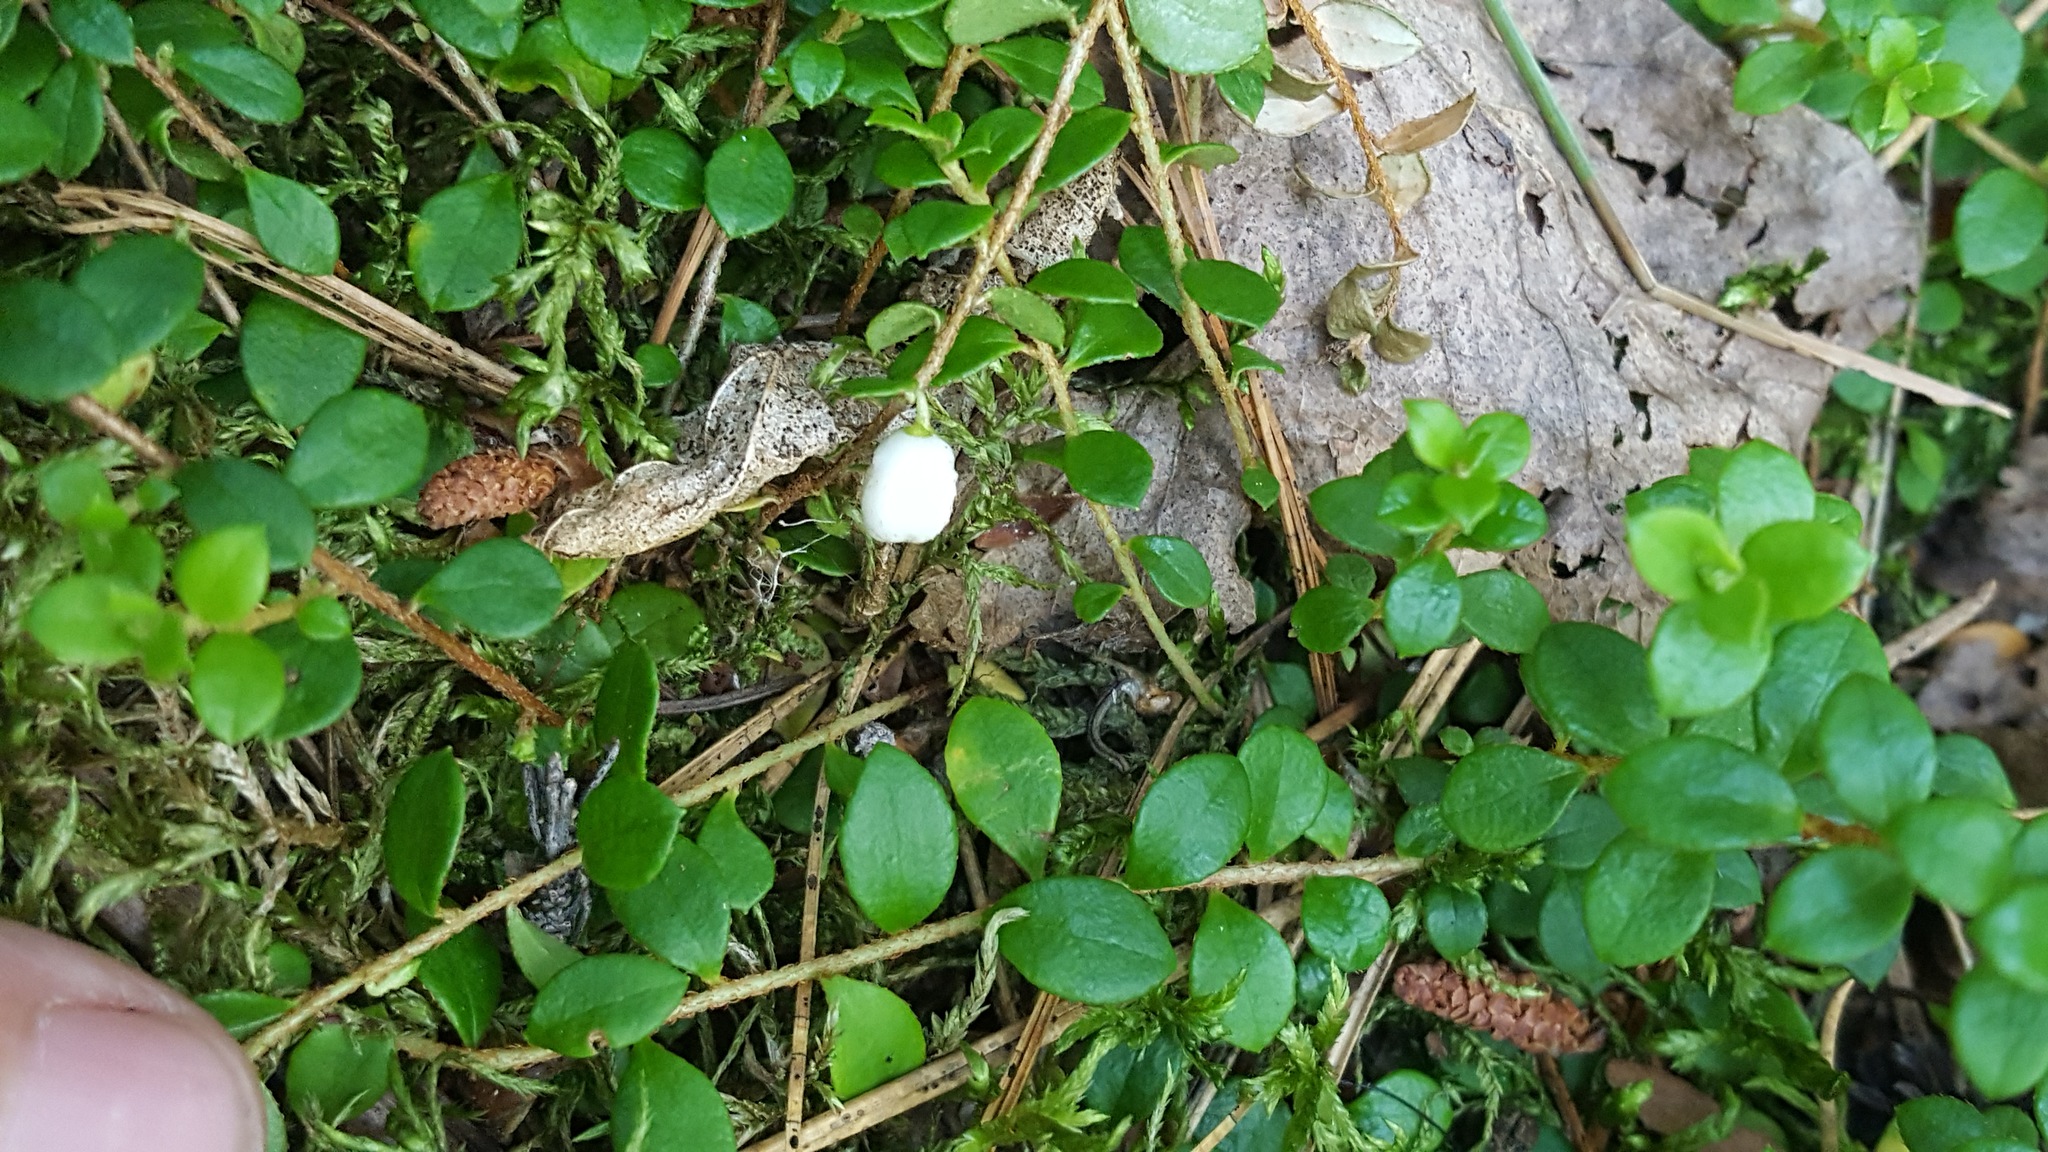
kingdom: Plantae
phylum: Tracheophyta
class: Magnoliopsida
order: Ericales
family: Ericaceae
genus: Gaultheria
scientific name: Gaultheria hispidula
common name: Cancer wintergreen
